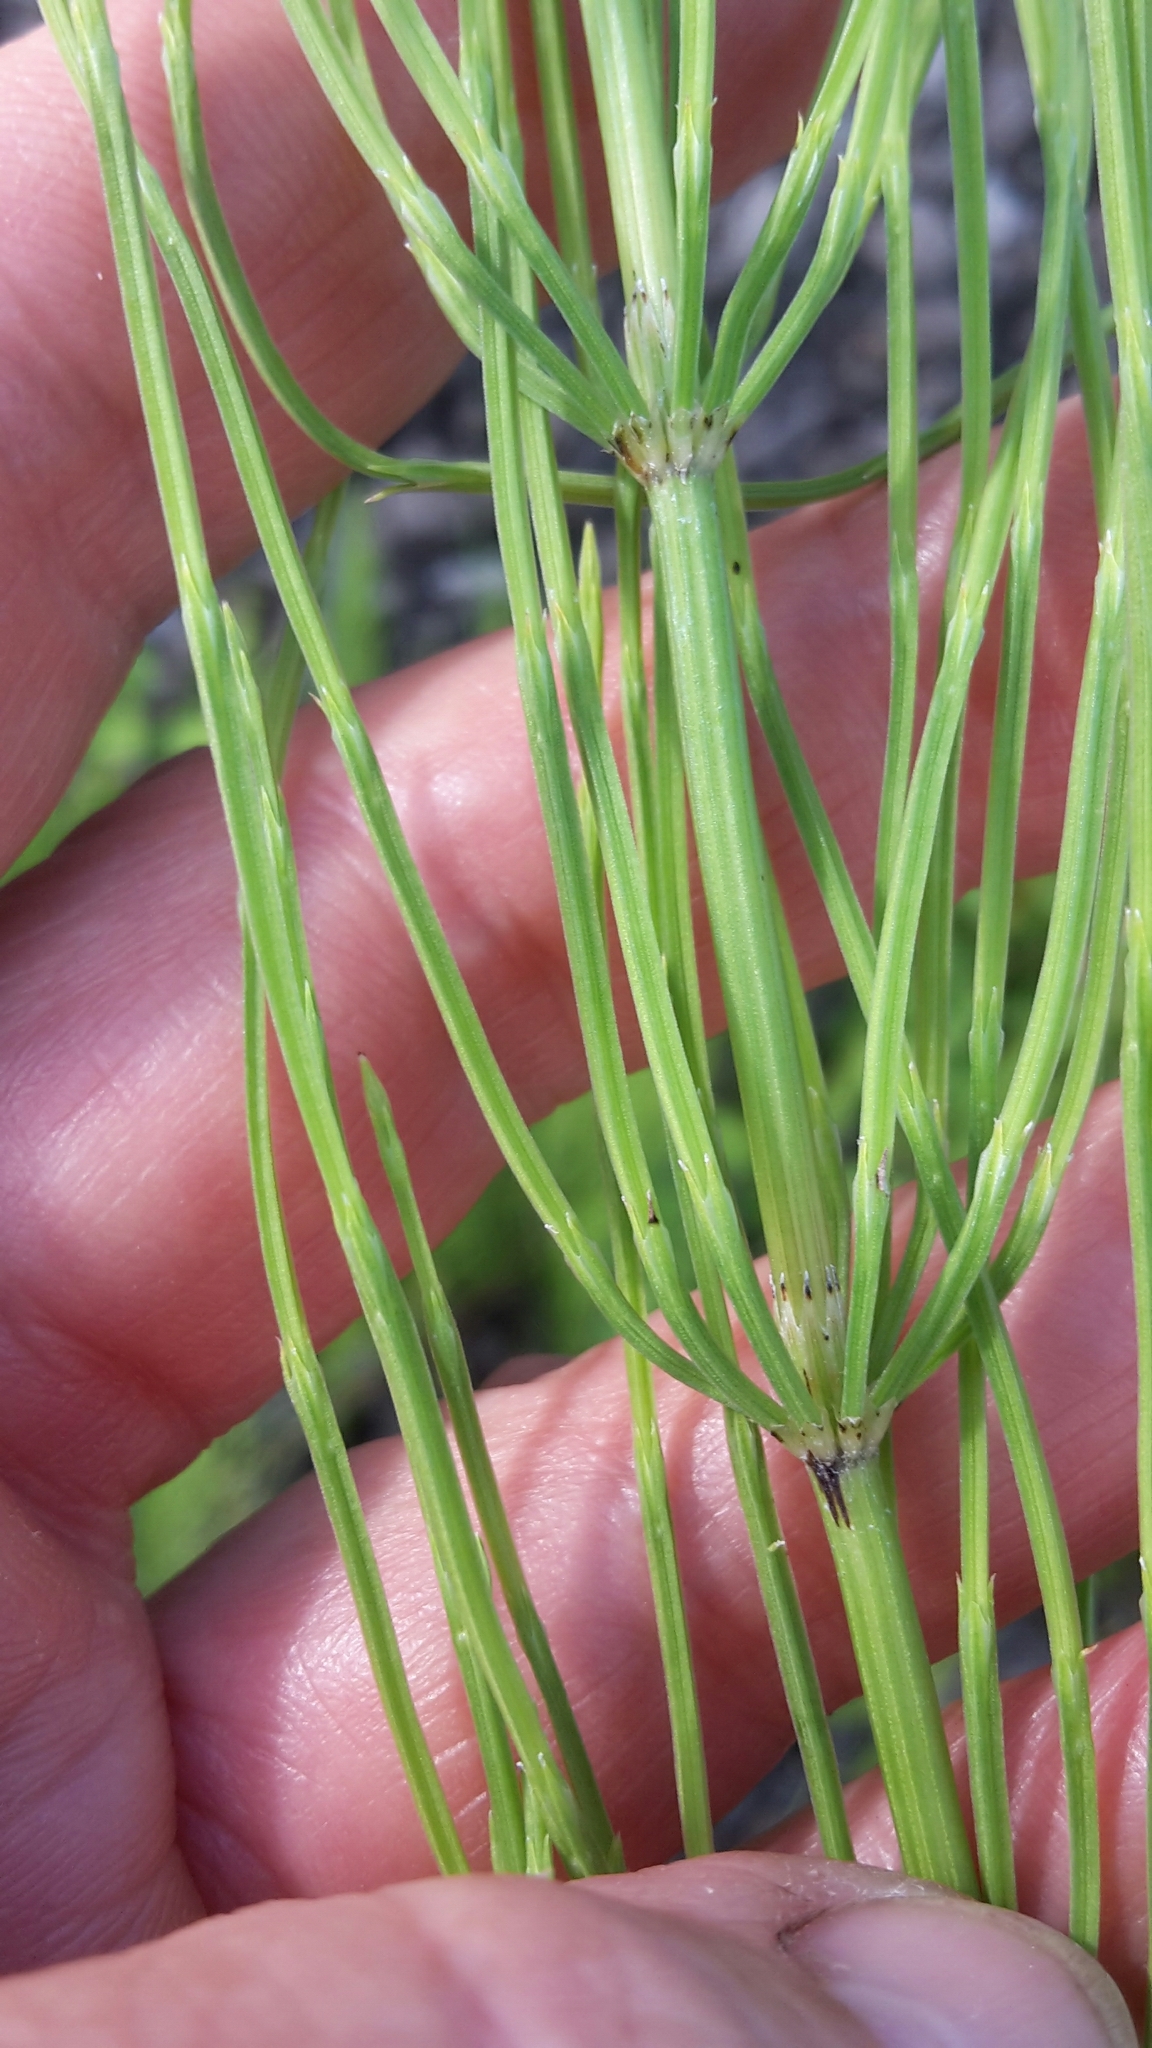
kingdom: Plantae
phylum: Tracheophyta
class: Polypodiopsida
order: Equisetales
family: Equisetaceae
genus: Equisetum
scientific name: Equisetum arvense
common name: Field horsetail
